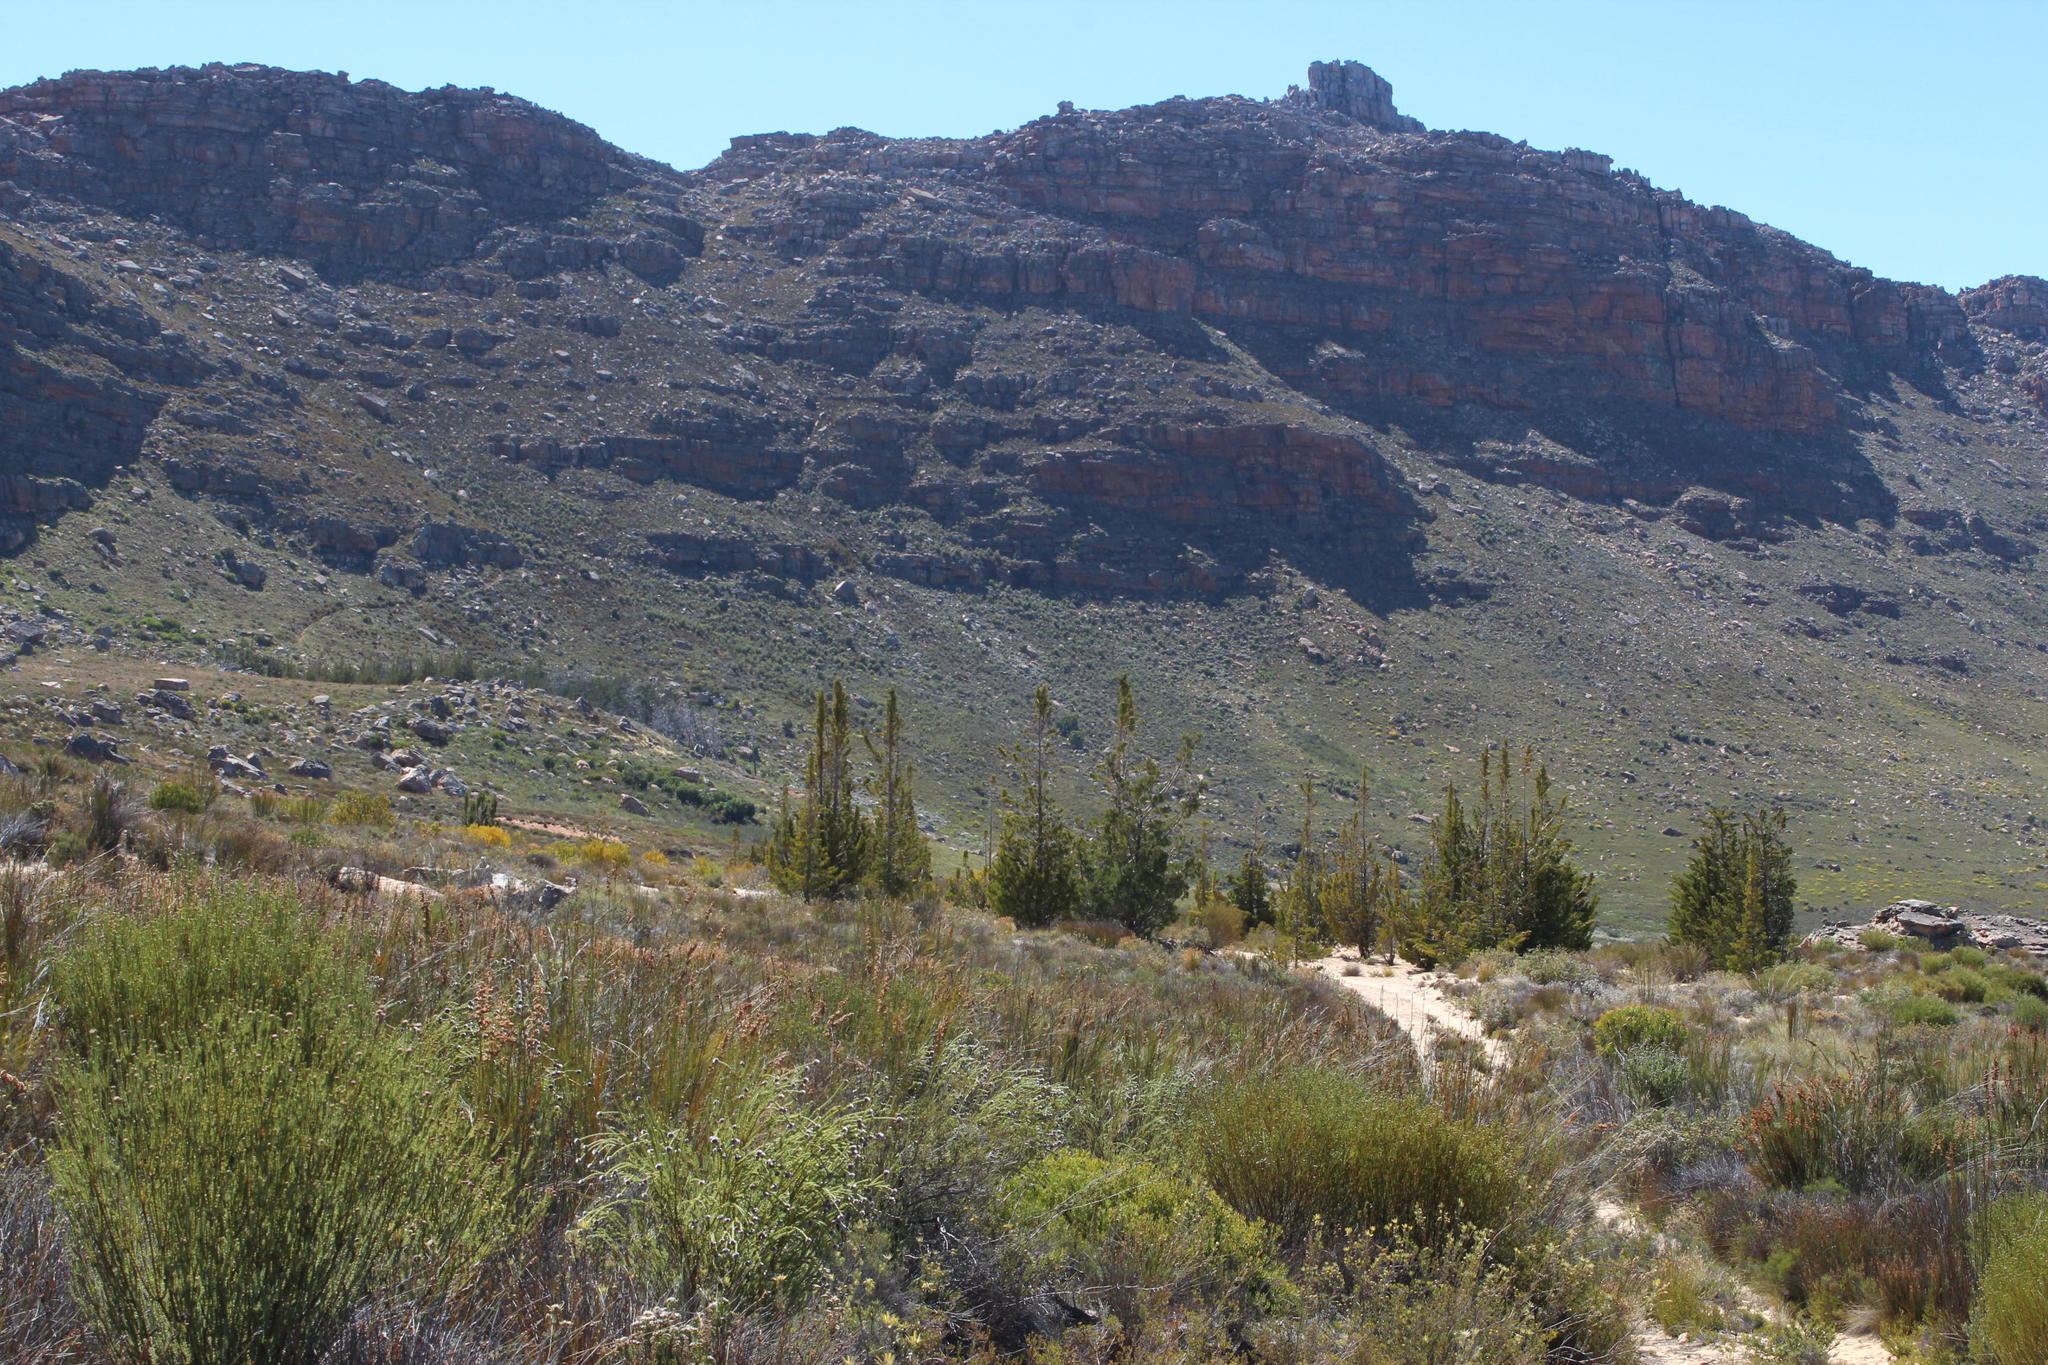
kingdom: Plantae
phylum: Tracheophyta
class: Pinopsida
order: Pinales
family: Cupressaceae
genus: Widdringtonia
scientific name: Widdringtonia nodiflora
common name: Cape cypress
